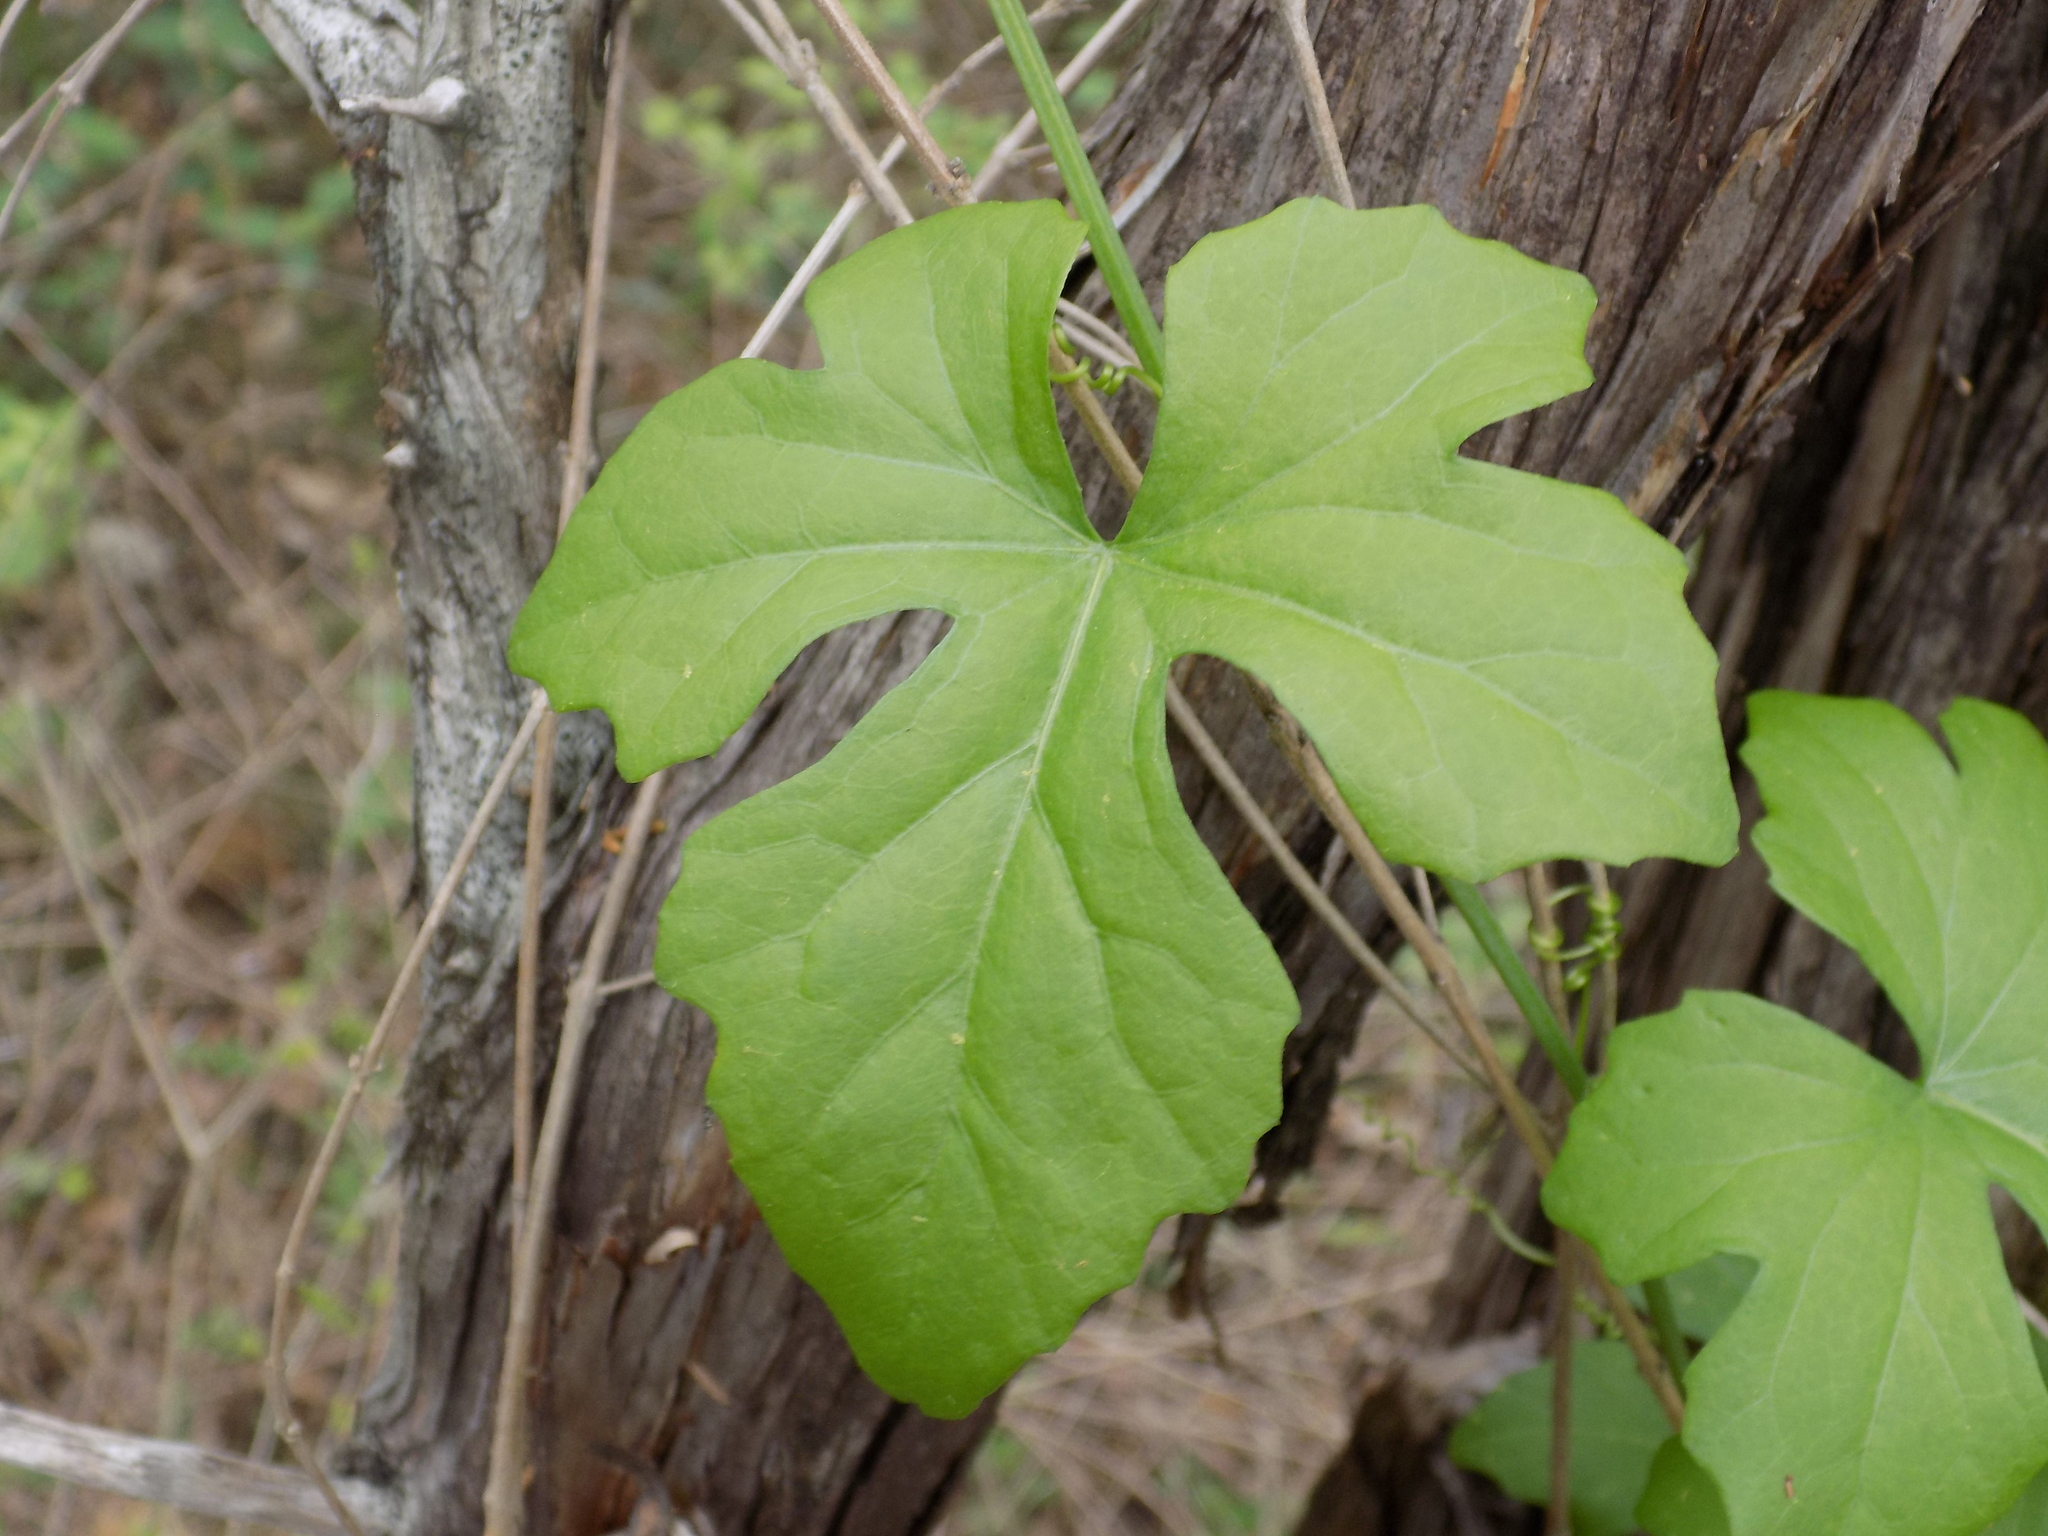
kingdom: Plantae
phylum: Tracheophyta
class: Magnoliopsida
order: Cucurbitales
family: Cucurbitaceae
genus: Ibervillea
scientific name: Ibervillea lindheimeri
